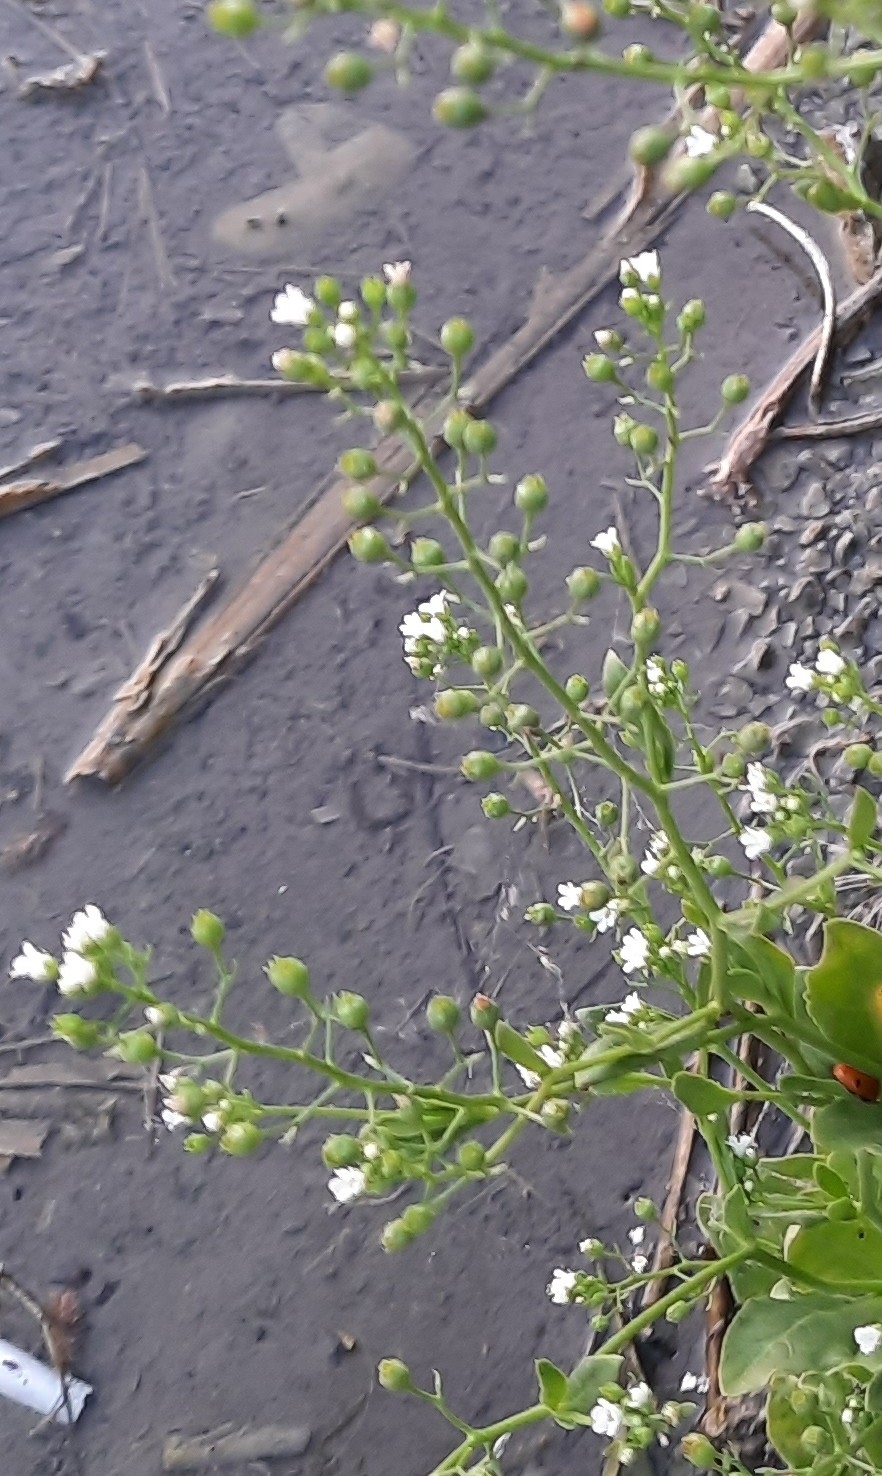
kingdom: Plantae
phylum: Tracheophyta
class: Magnoliopsida
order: Ericales
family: Primulaceae
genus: Samolus
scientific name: Samolus valerandi
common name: Brookweed
